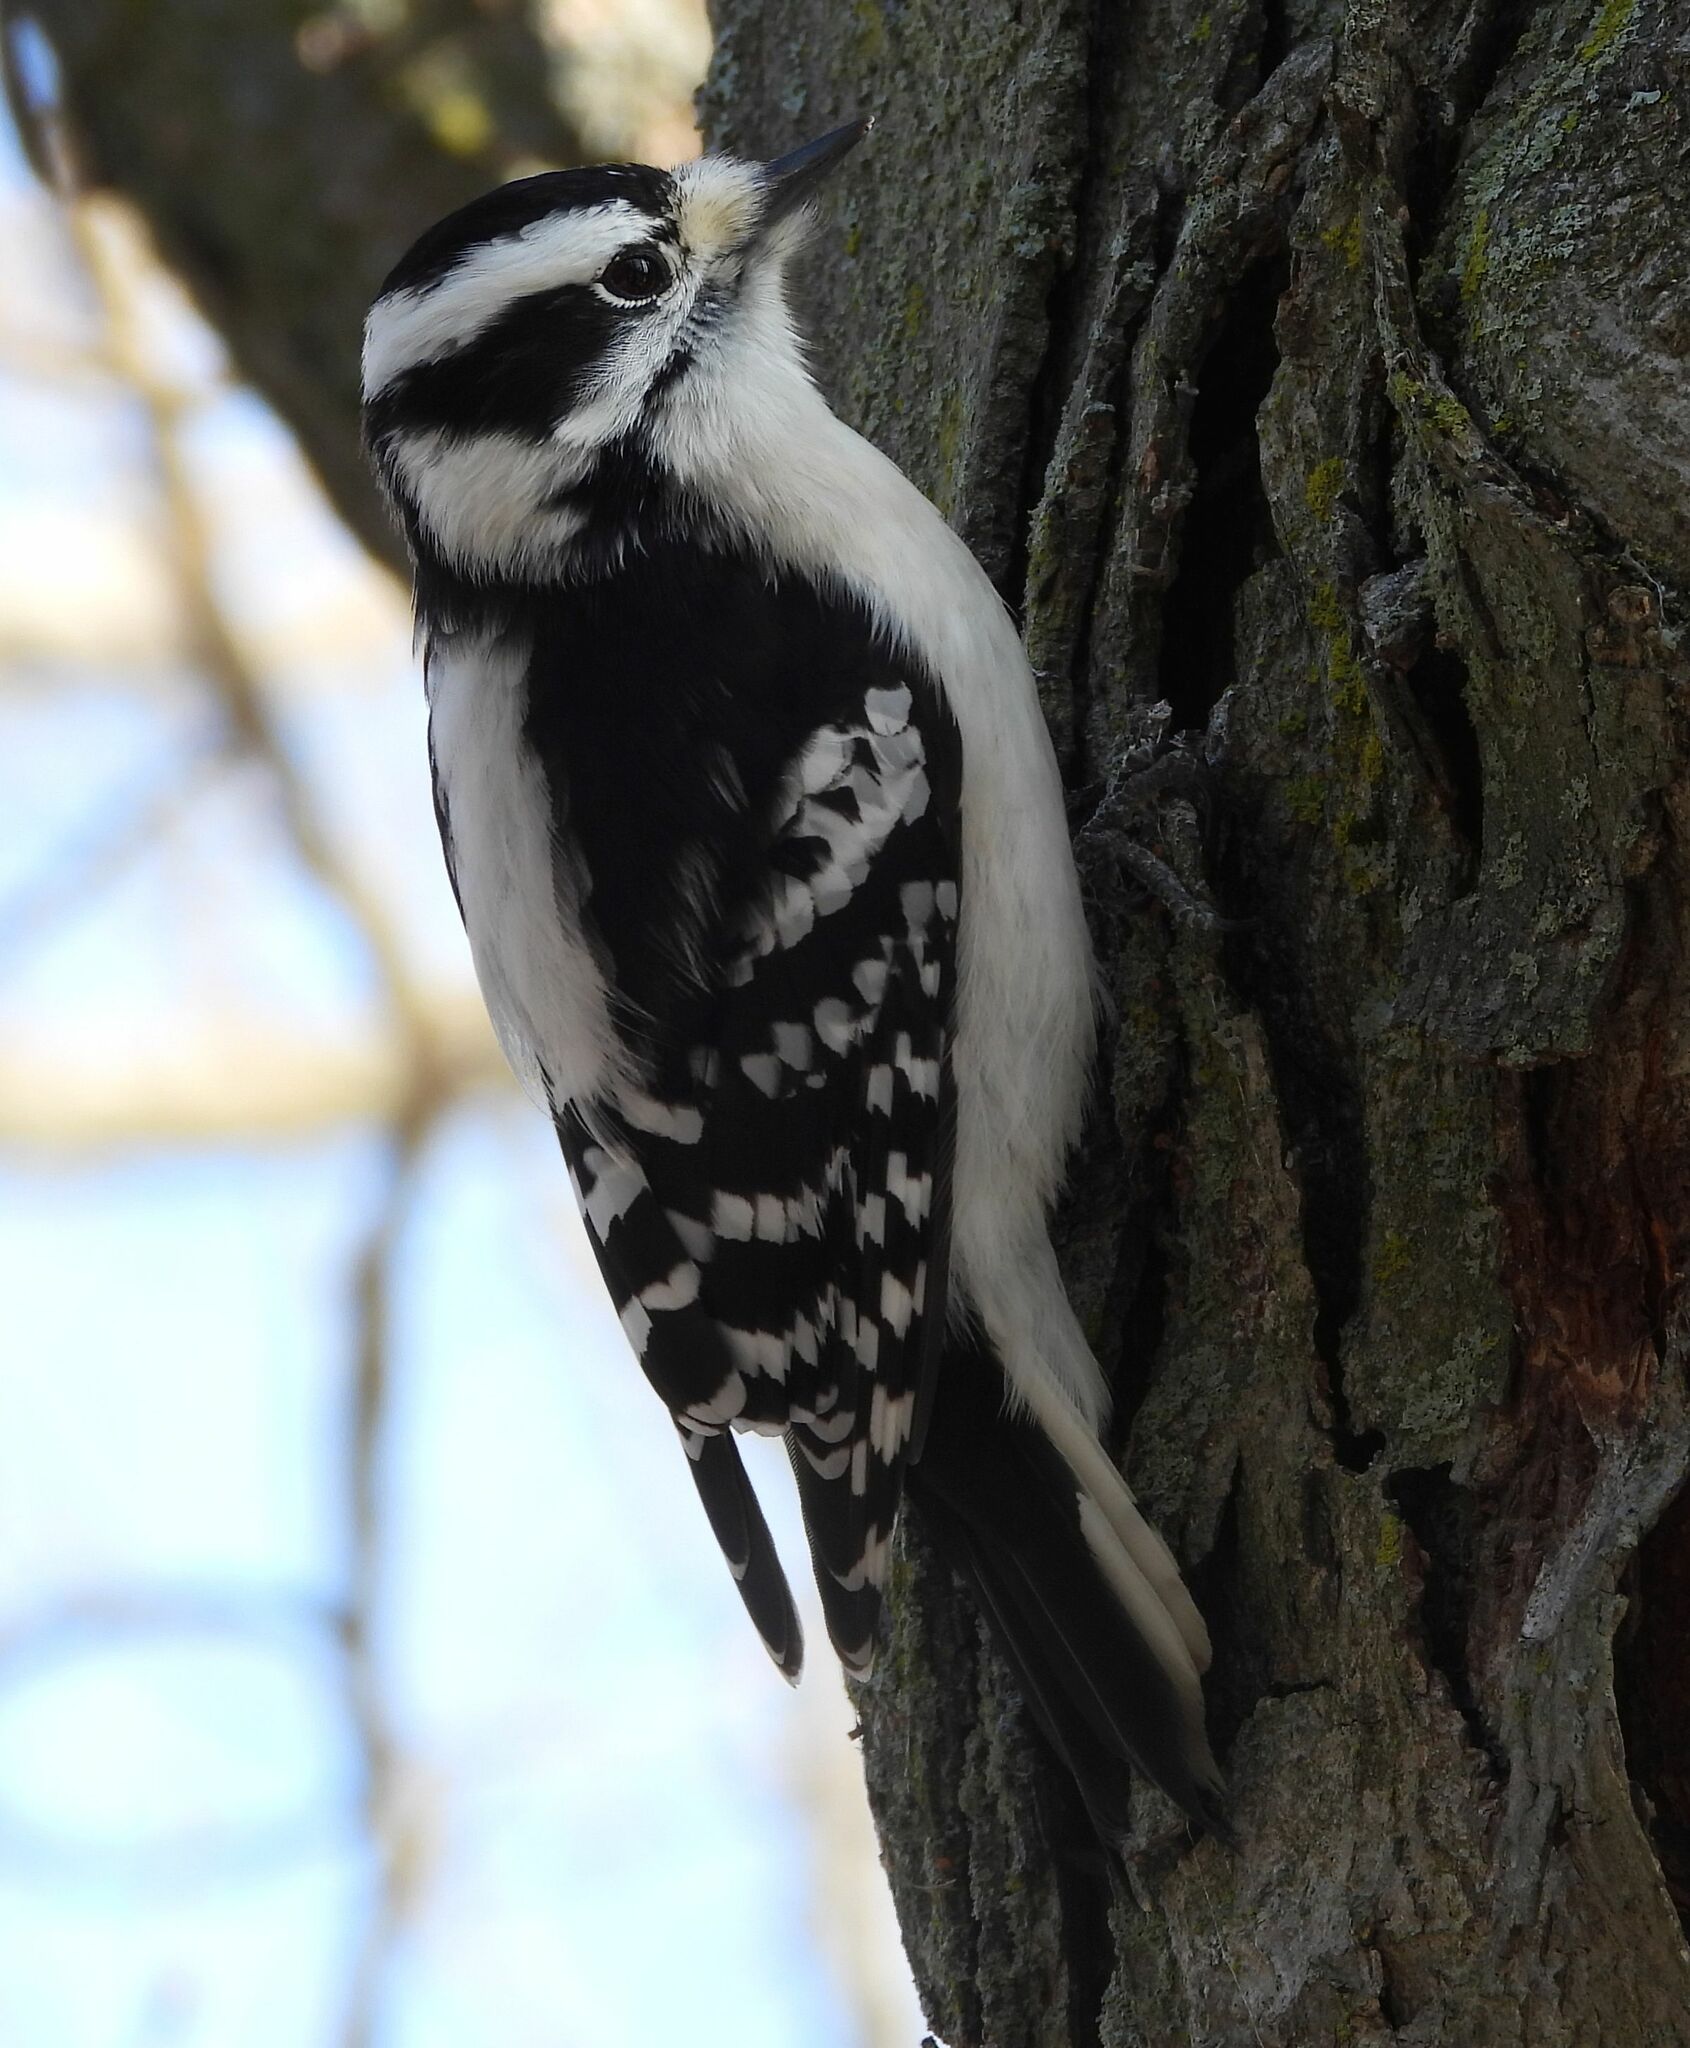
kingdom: Animalia
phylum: Chordata
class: Aves
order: Piciformes
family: Picidae
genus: Dryobates
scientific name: Dryobates pubescens
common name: Downy woodpecker
